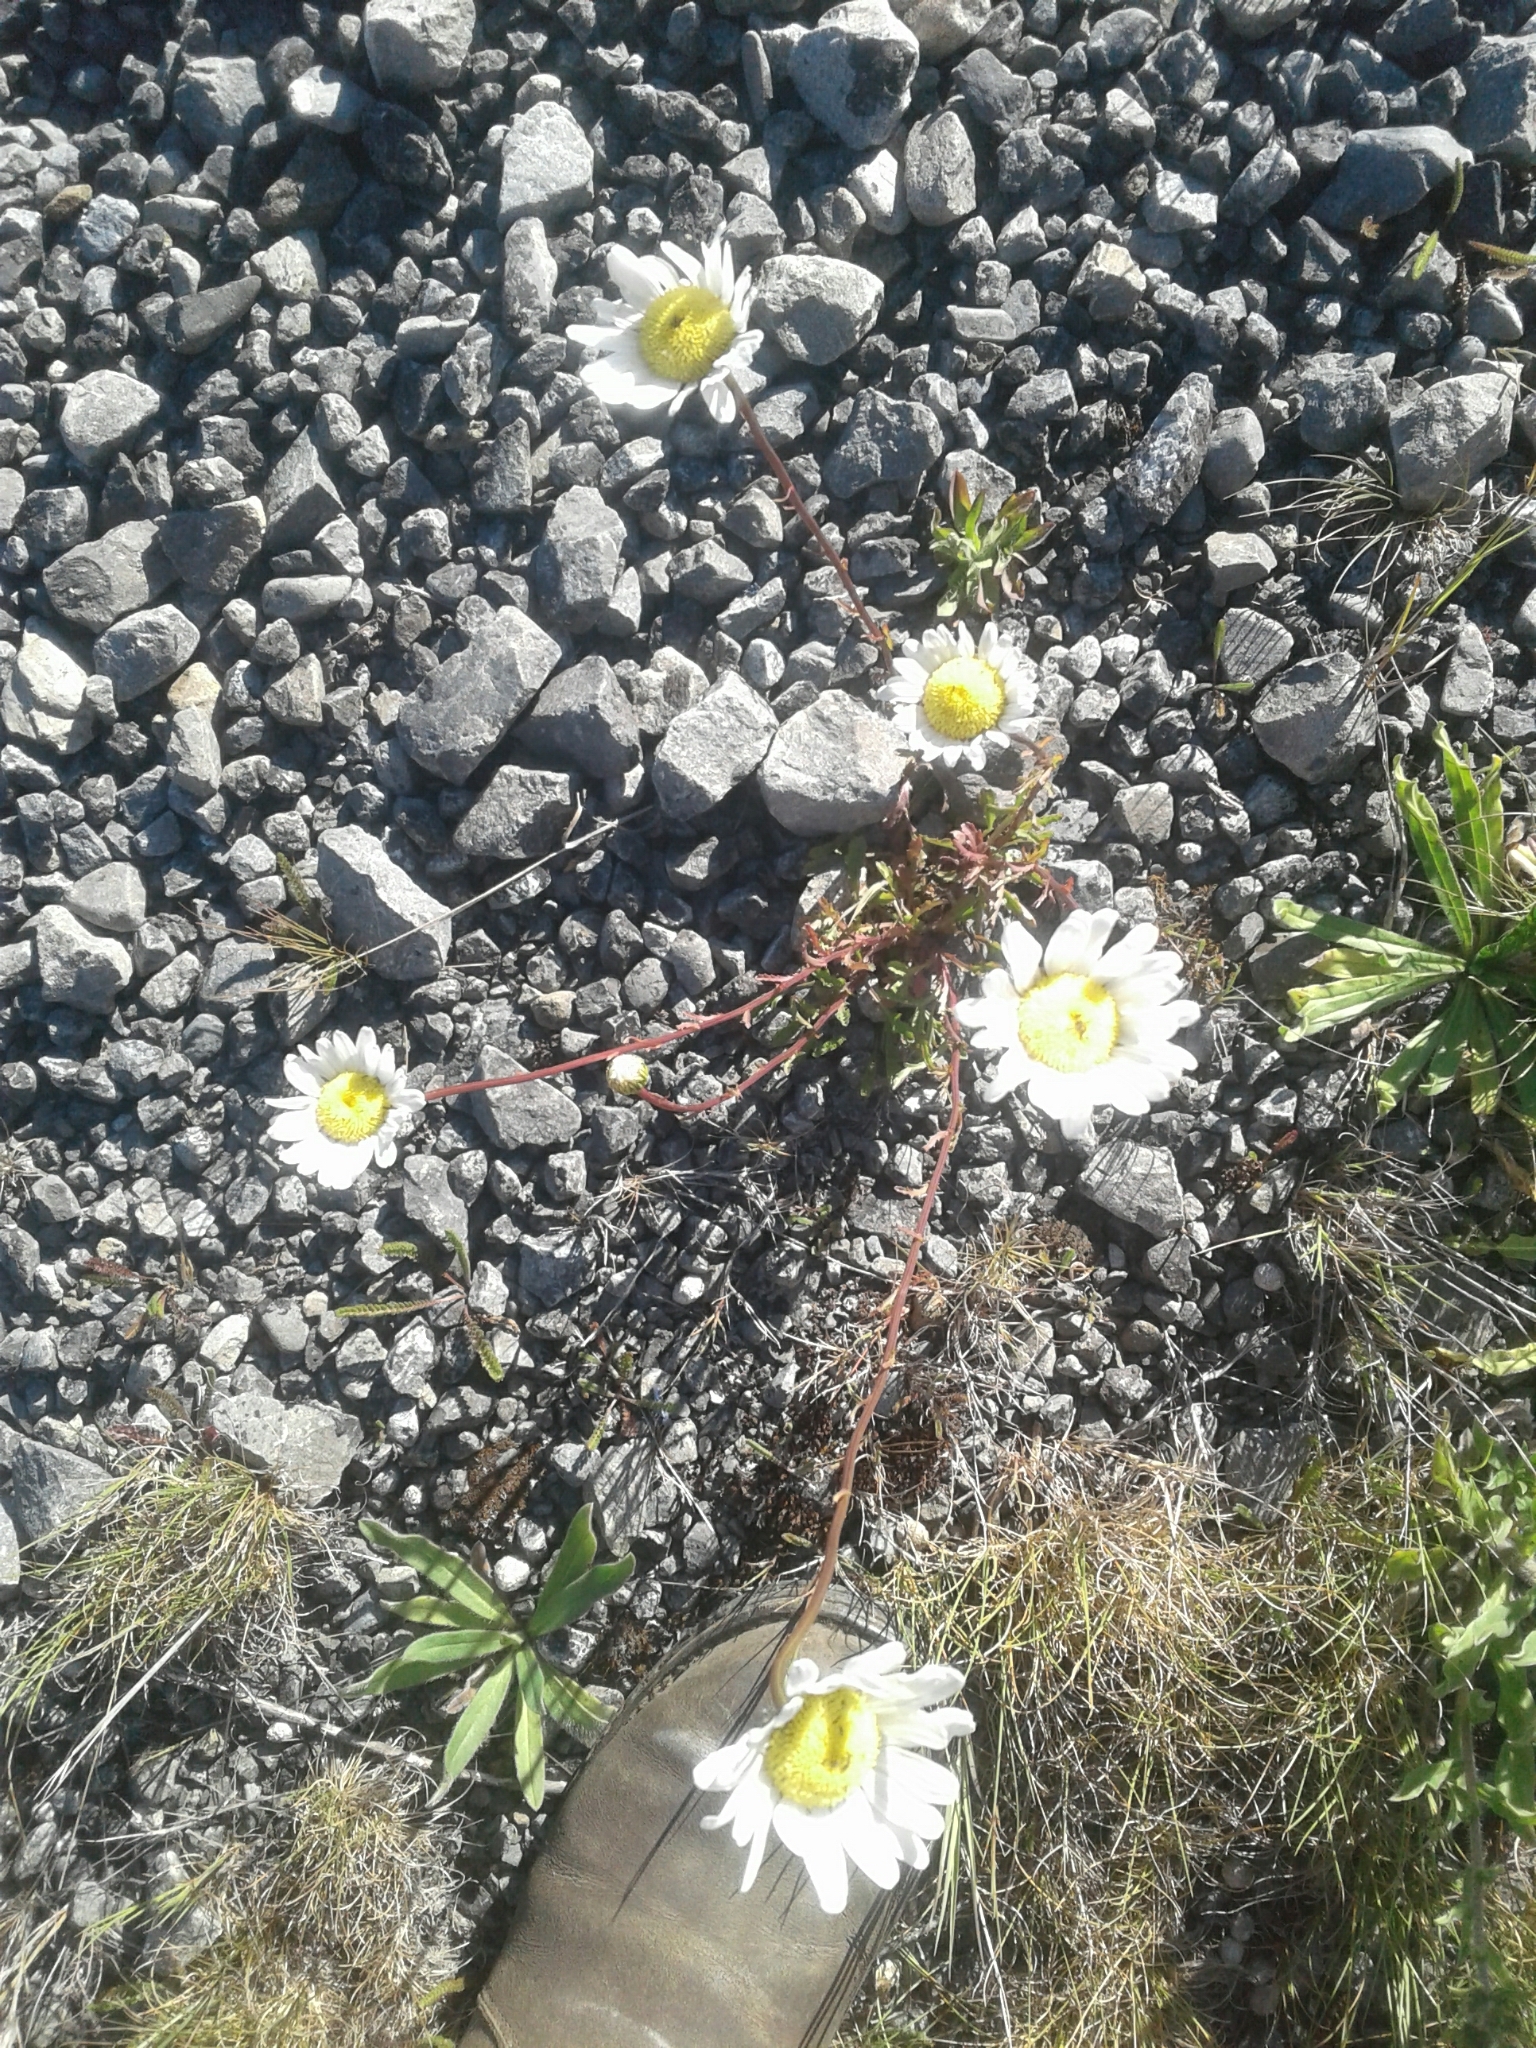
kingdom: Plantae
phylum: Tracheophyta
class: Magnoliopsida
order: Asterales
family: Asteraceae
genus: Leucanthemum
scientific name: Leucanthemum vulgare
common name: Oxeye daisy
